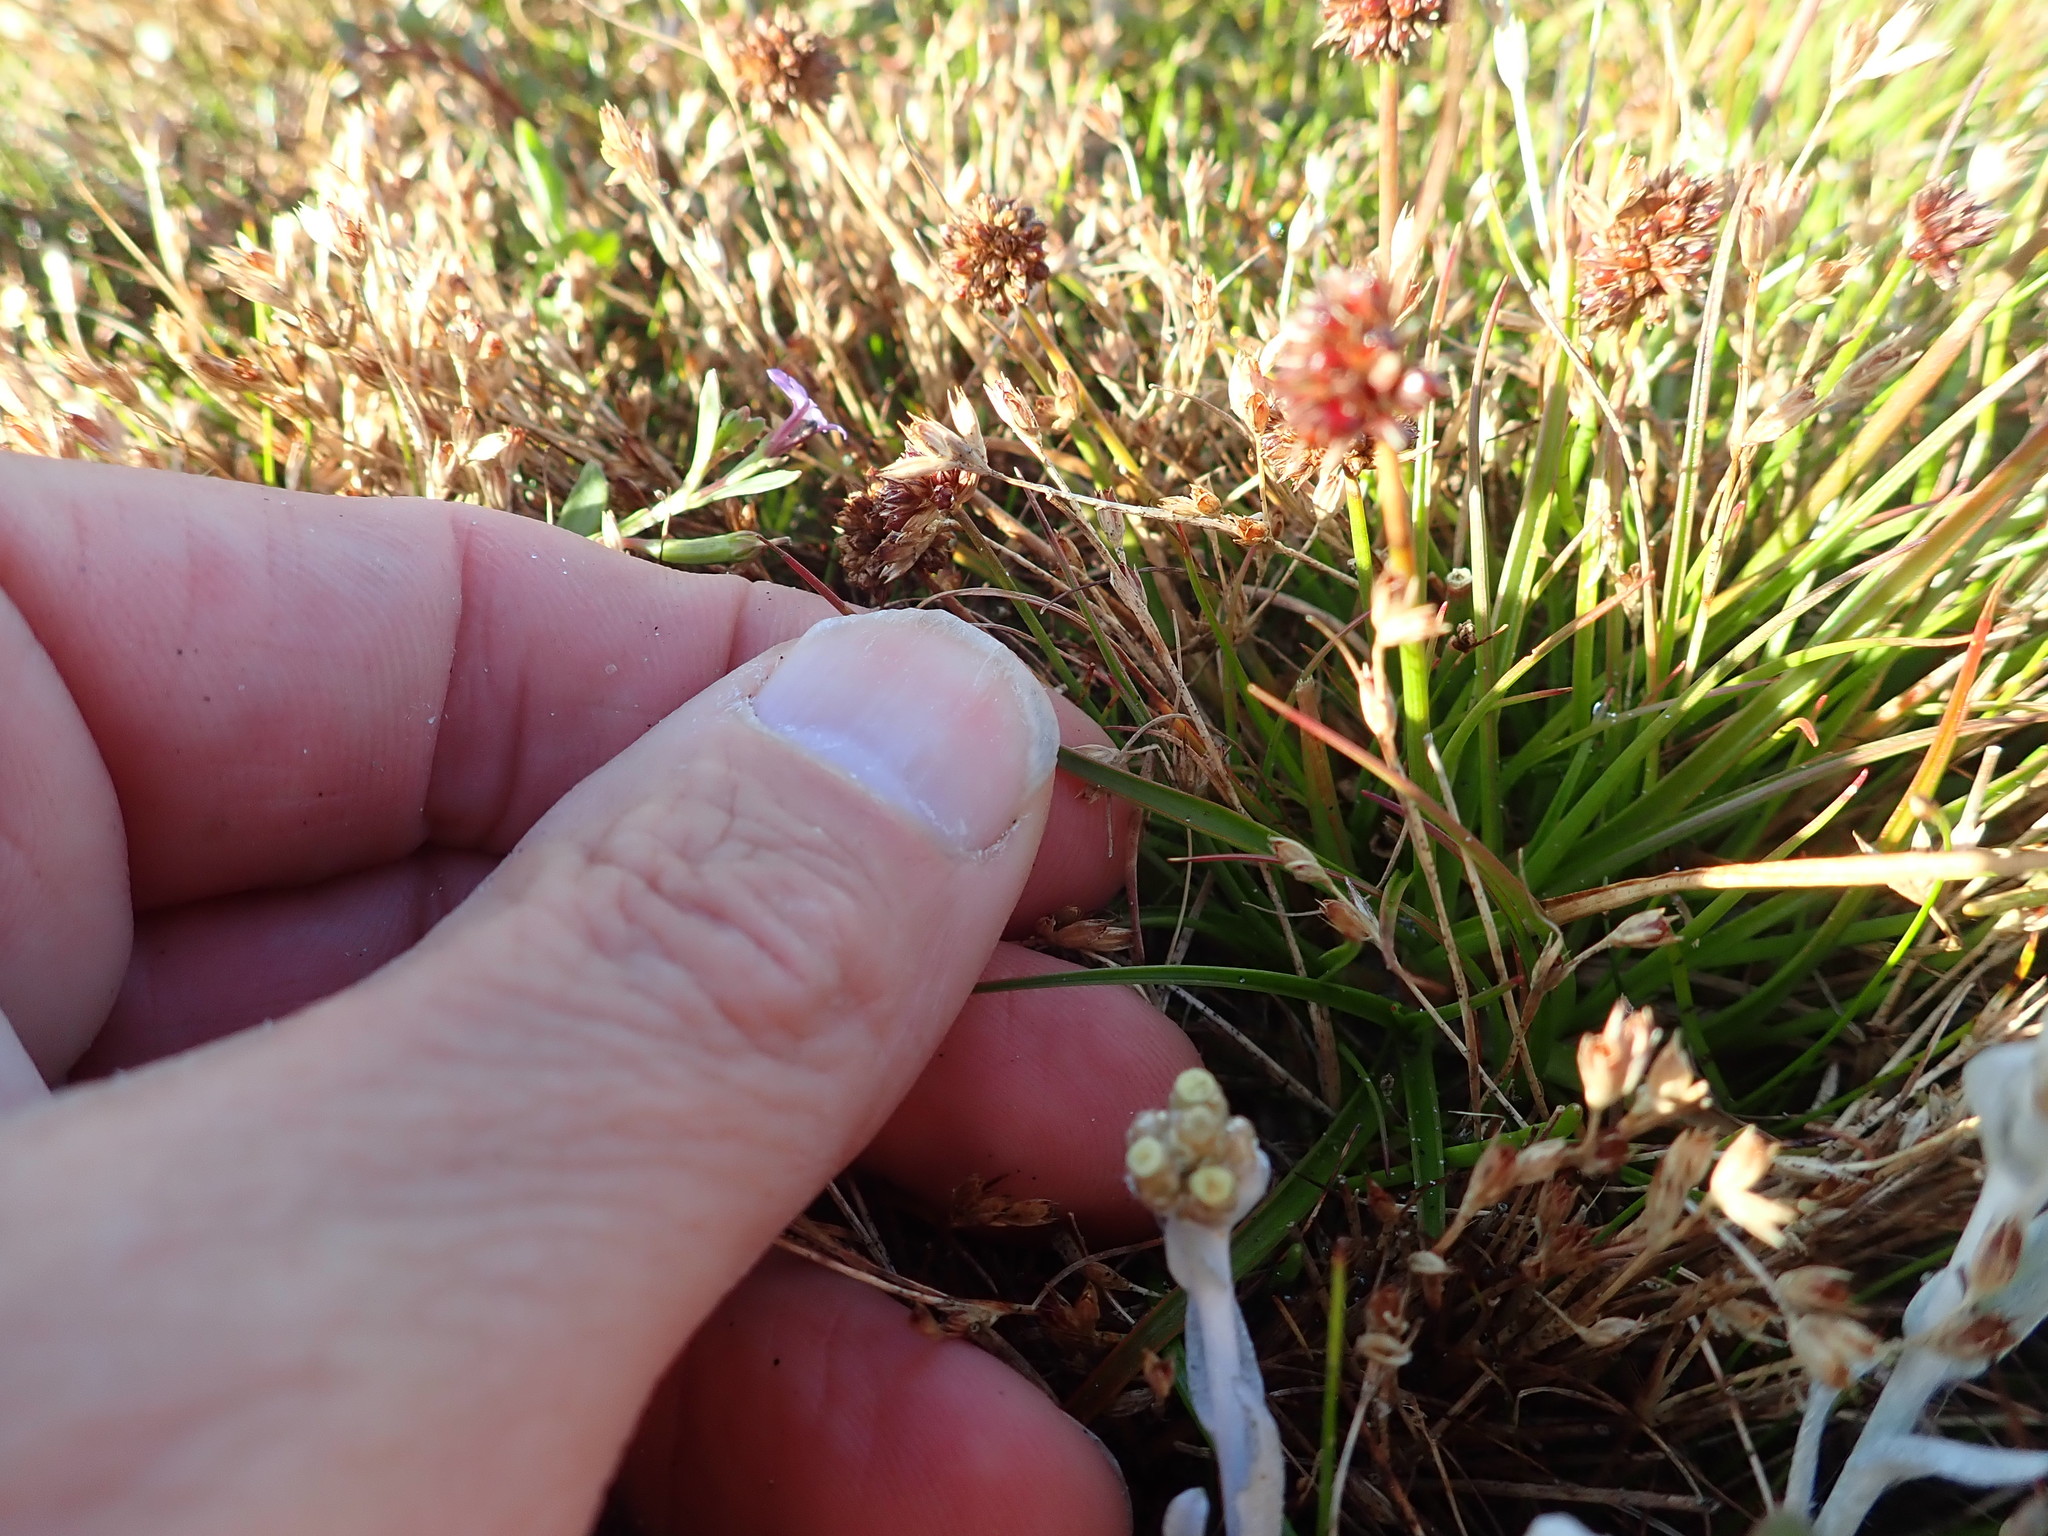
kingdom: Plantae
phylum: Tracheophyta
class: Liliopsida
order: Poales
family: Juncaceae
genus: Juncus
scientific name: Juncus caespiticius
